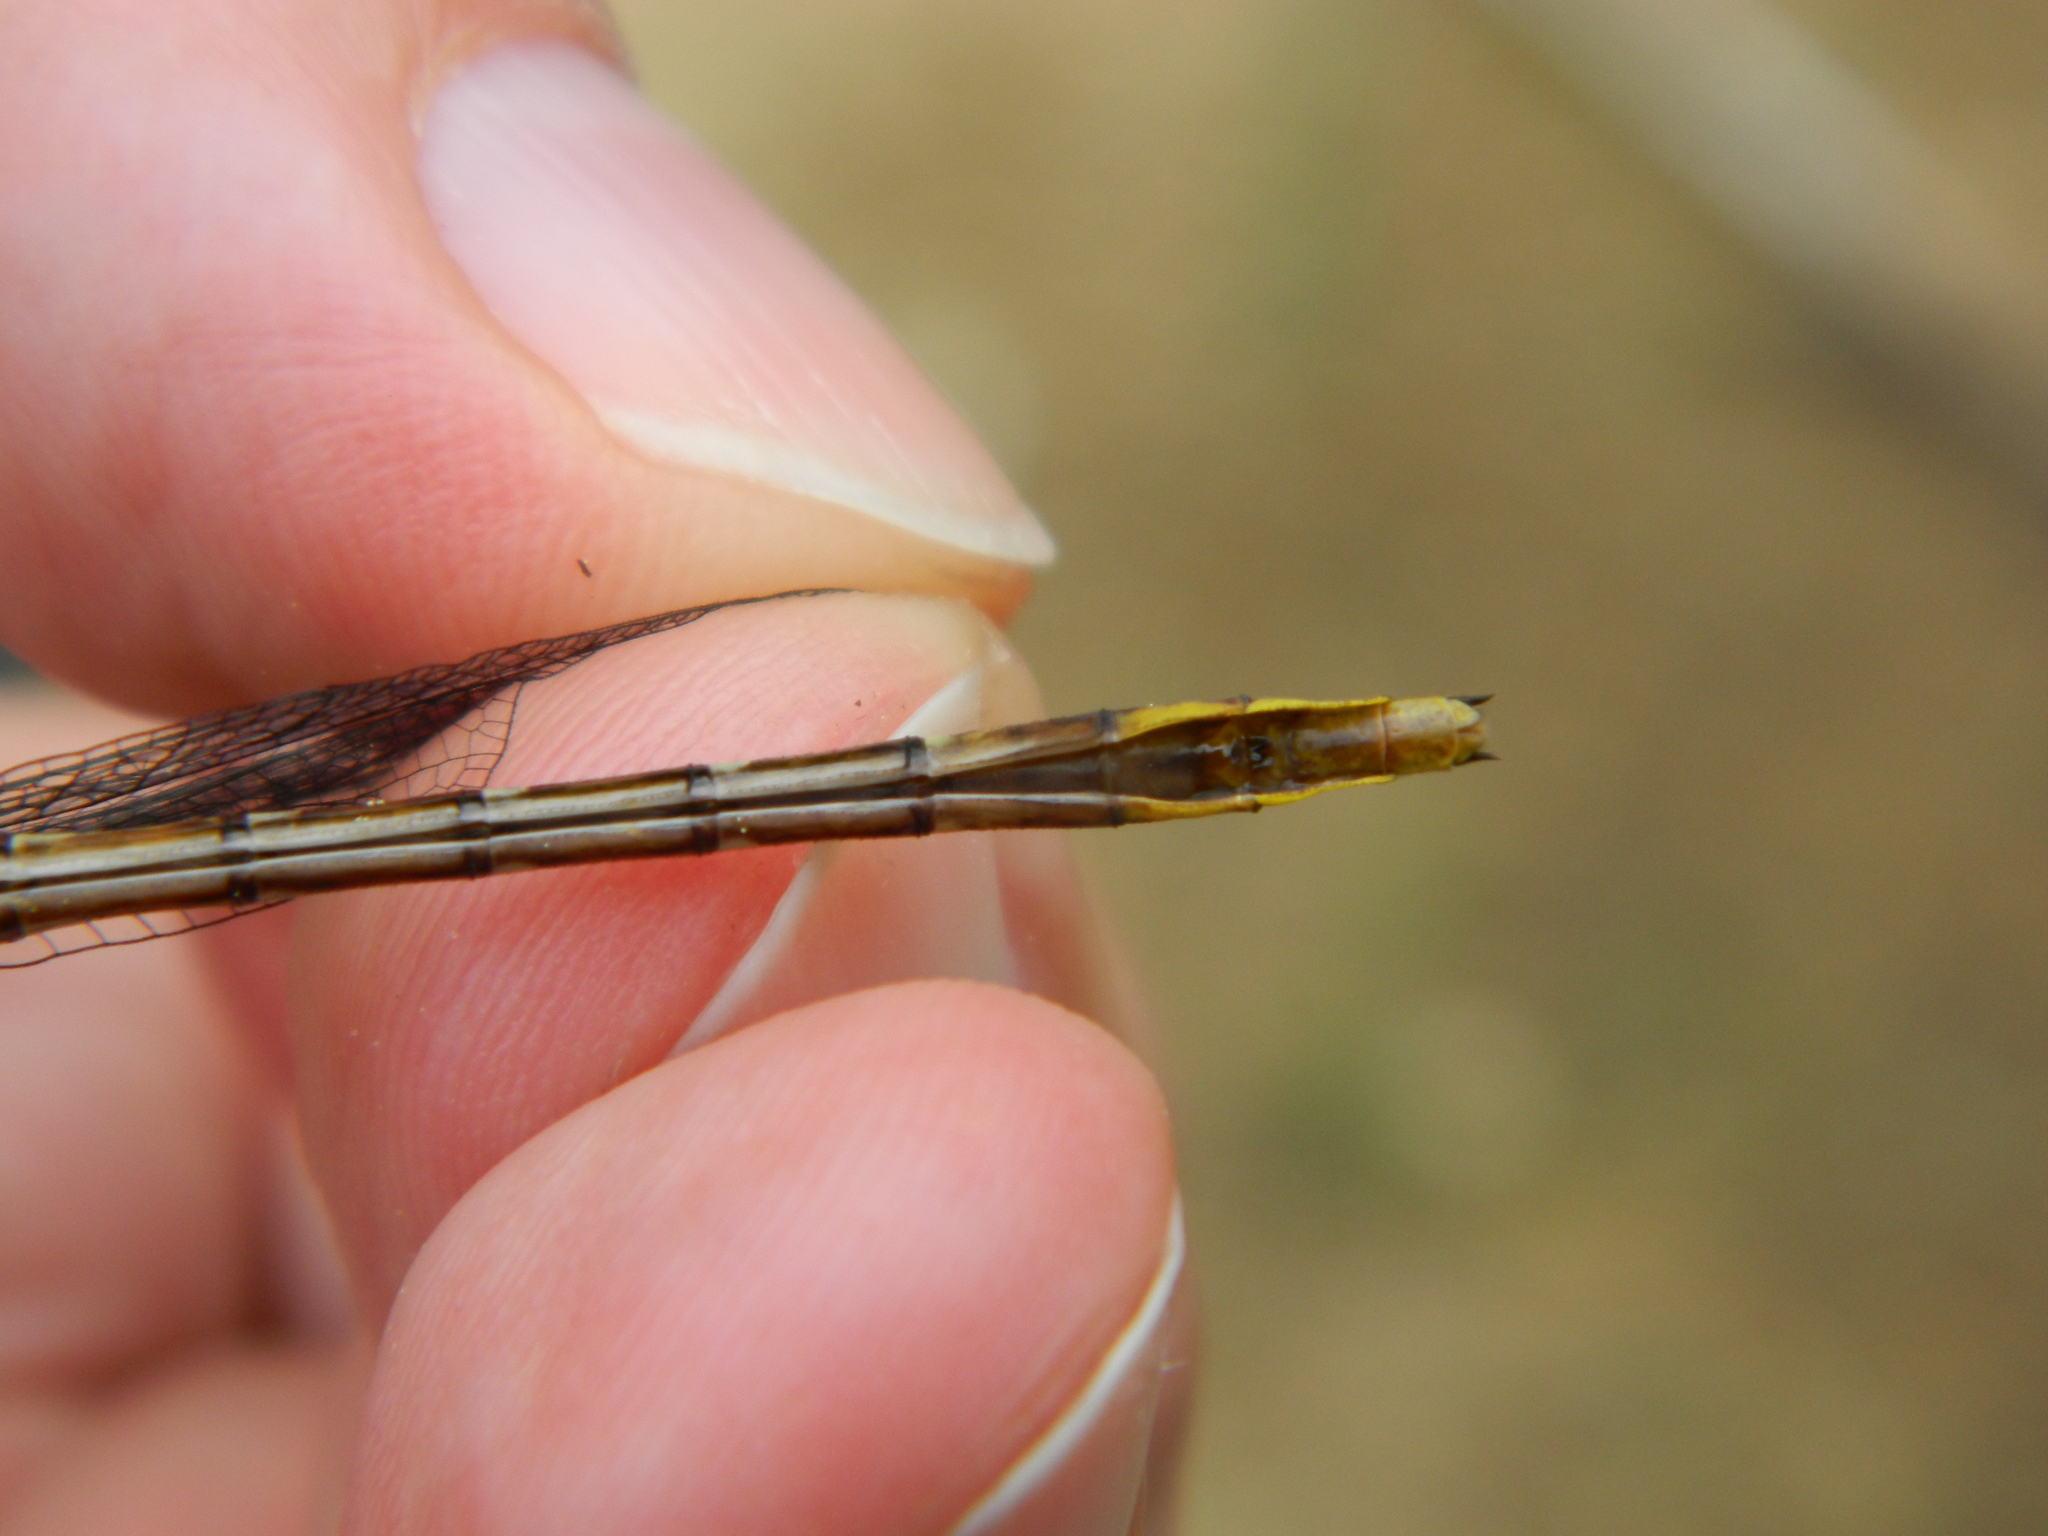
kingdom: Animalia
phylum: Arthropoda
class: Insecta
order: Odonata
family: Gomphidae
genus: Phanogomphus
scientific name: Phanogomphus exilis
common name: Lancet clubtail
